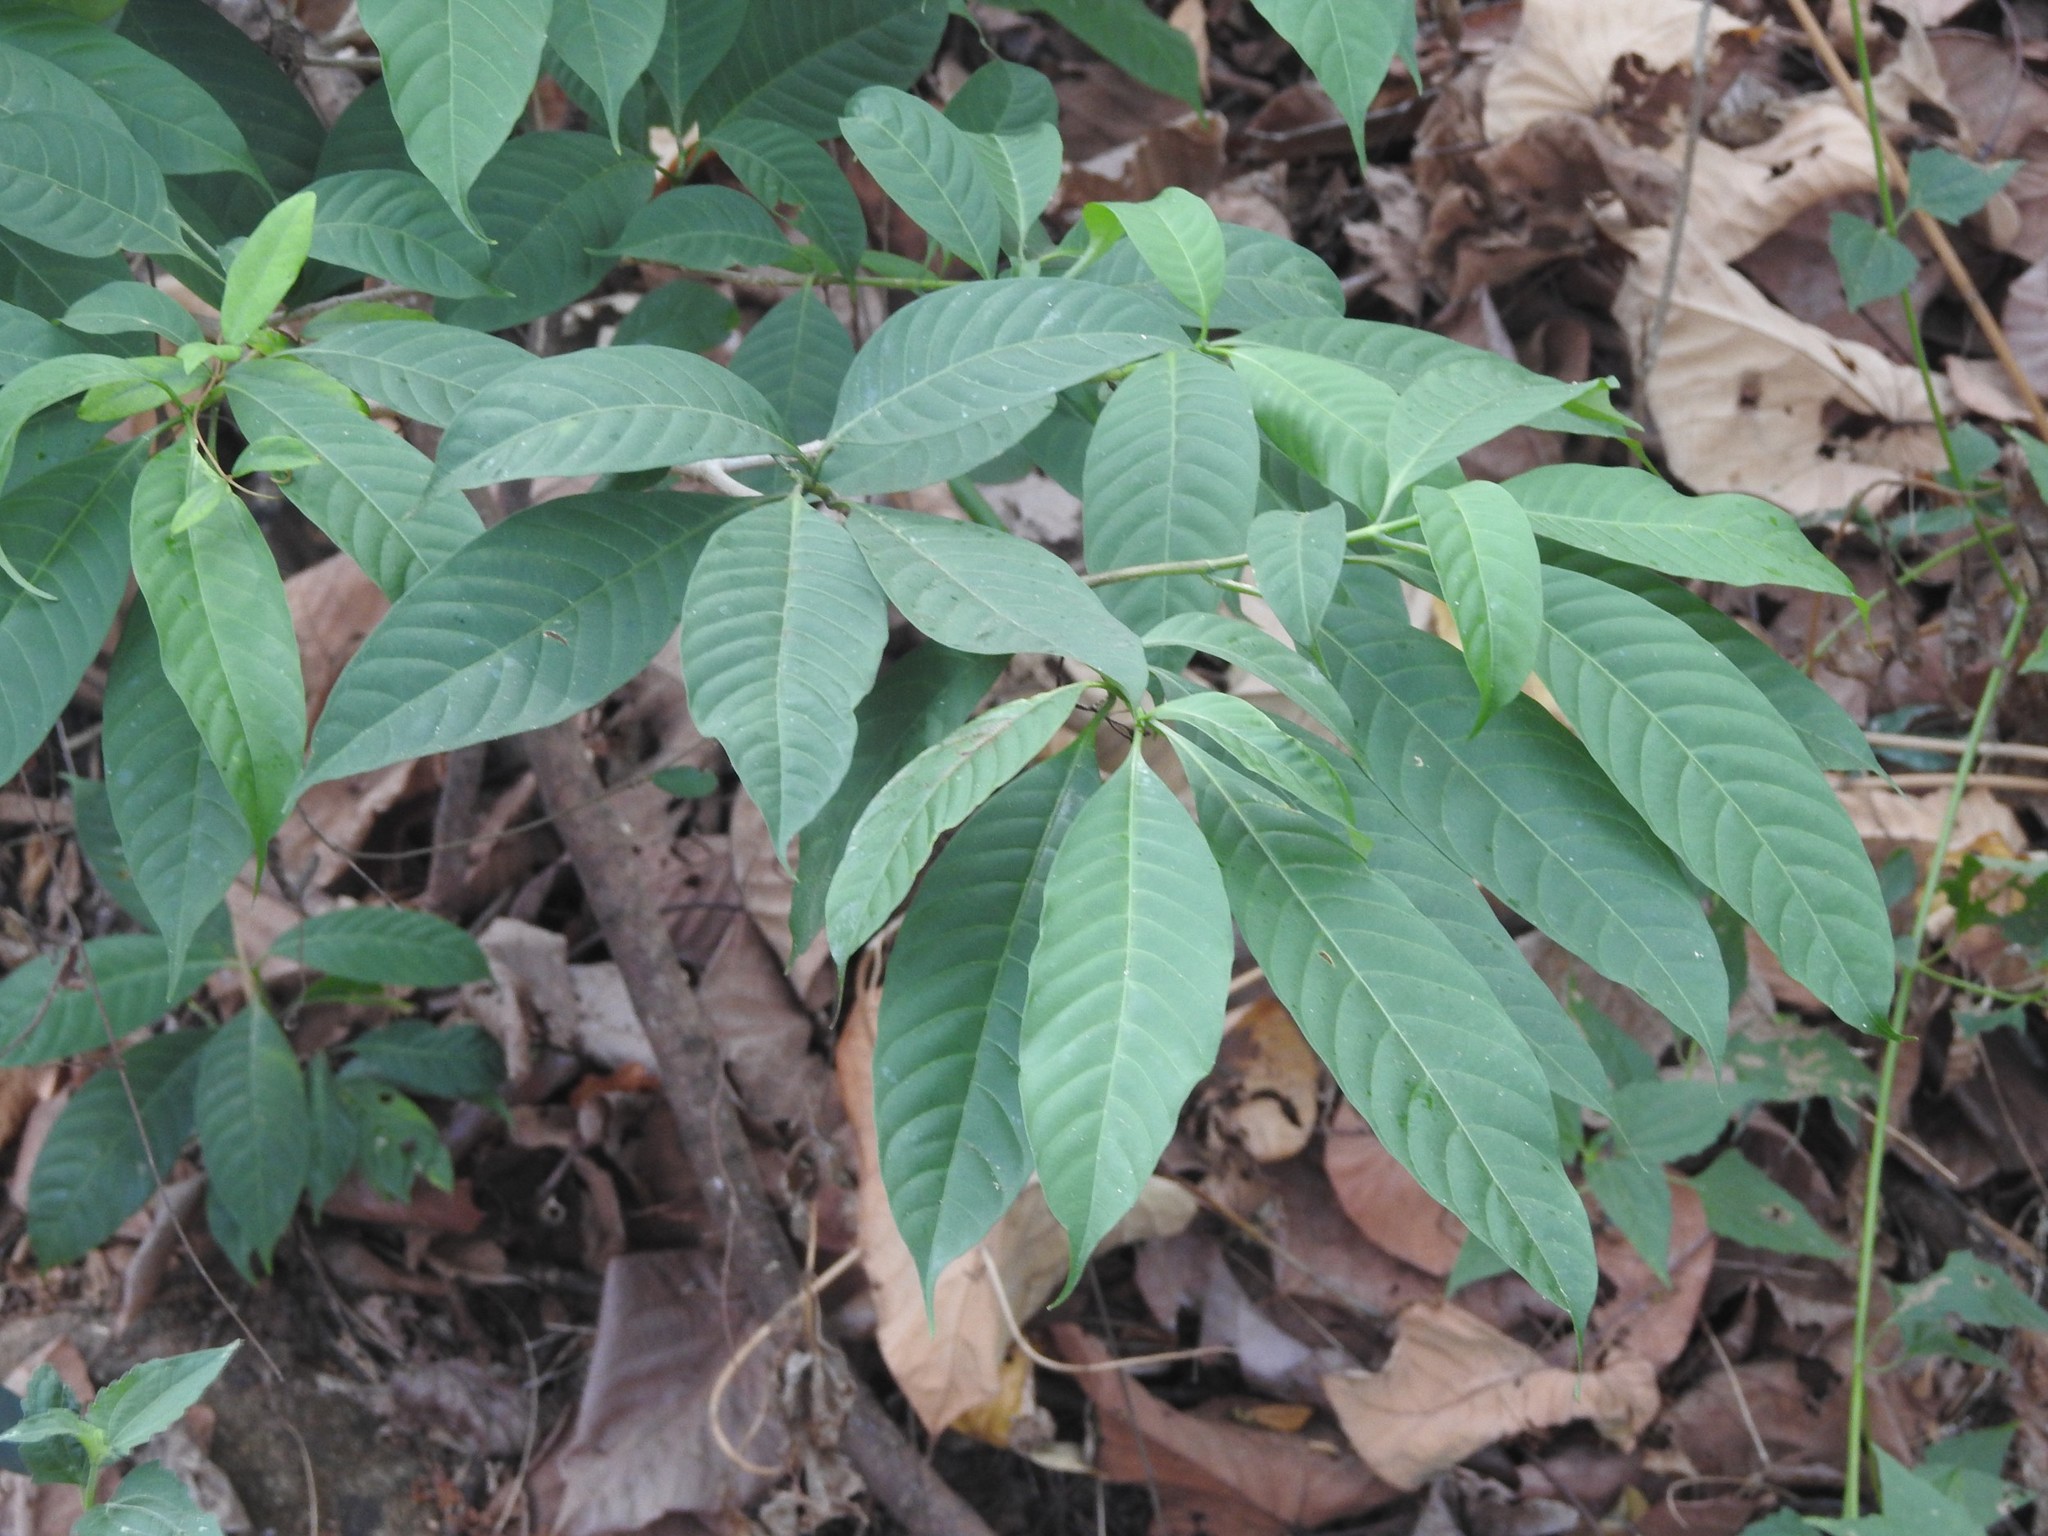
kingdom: Plantae
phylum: Tracheophyta
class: Magnoliopsida
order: Gentianales
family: Apocynaceae
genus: Tabernaemontana
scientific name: Tabernaemontana alternifolia
